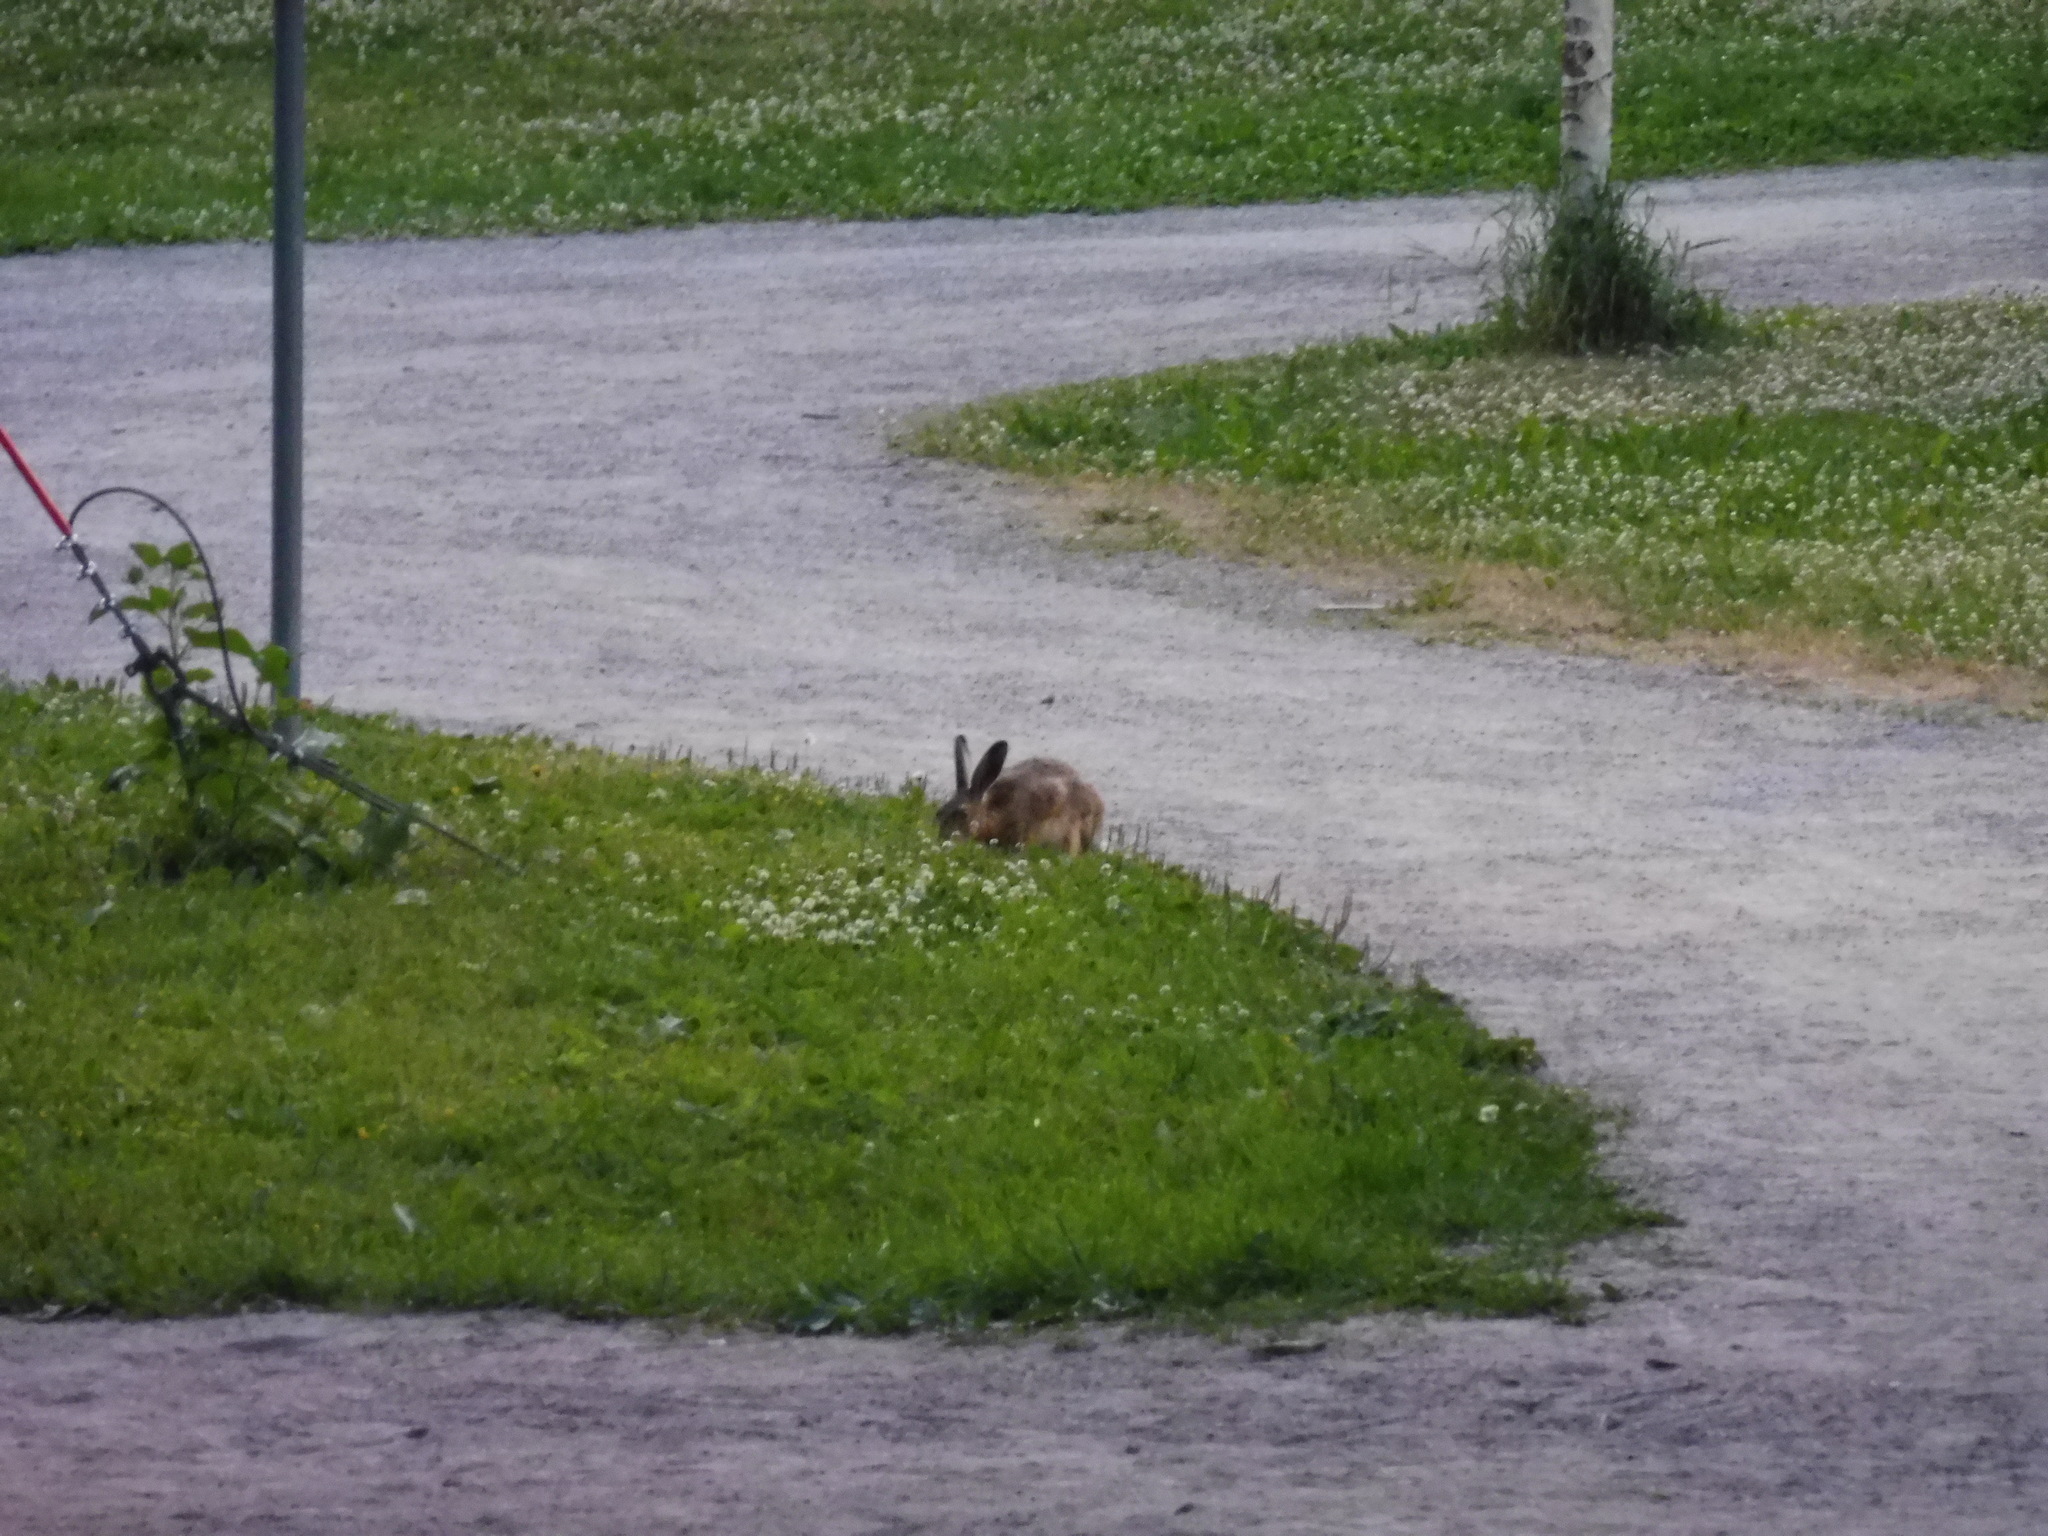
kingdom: Animalia
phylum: Chordata
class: Mammalia
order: Lagomorpha
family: Leporidae
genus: Lepus
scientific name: Lepus europaeus
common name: European hare
